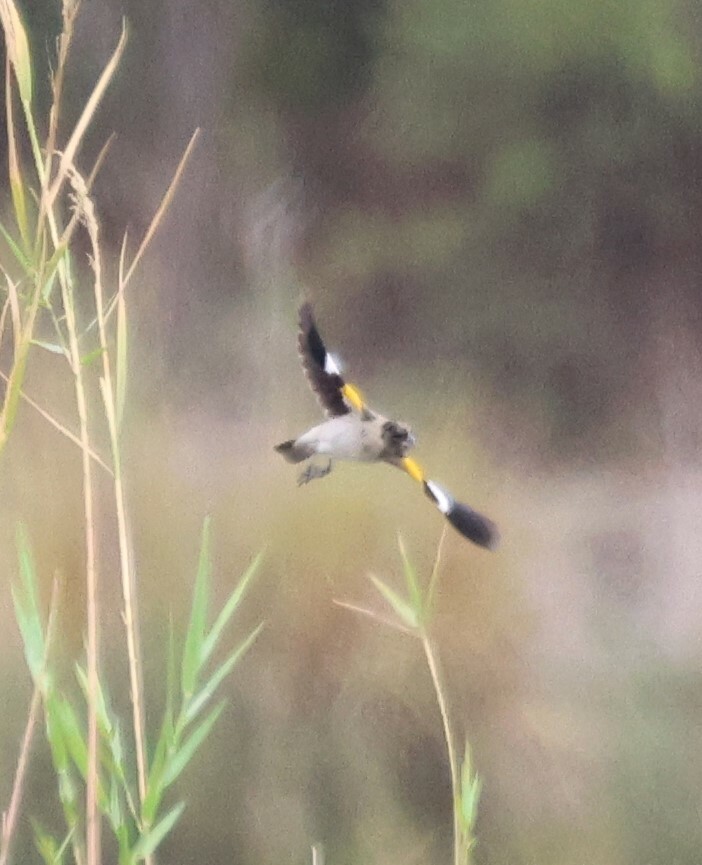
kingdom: Animalia
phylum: Chordata
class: Aves
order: Passeriformes
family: Ploceidae
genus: Euplectes
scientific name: Euplectes albonotatus
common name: White-winged widowbird
